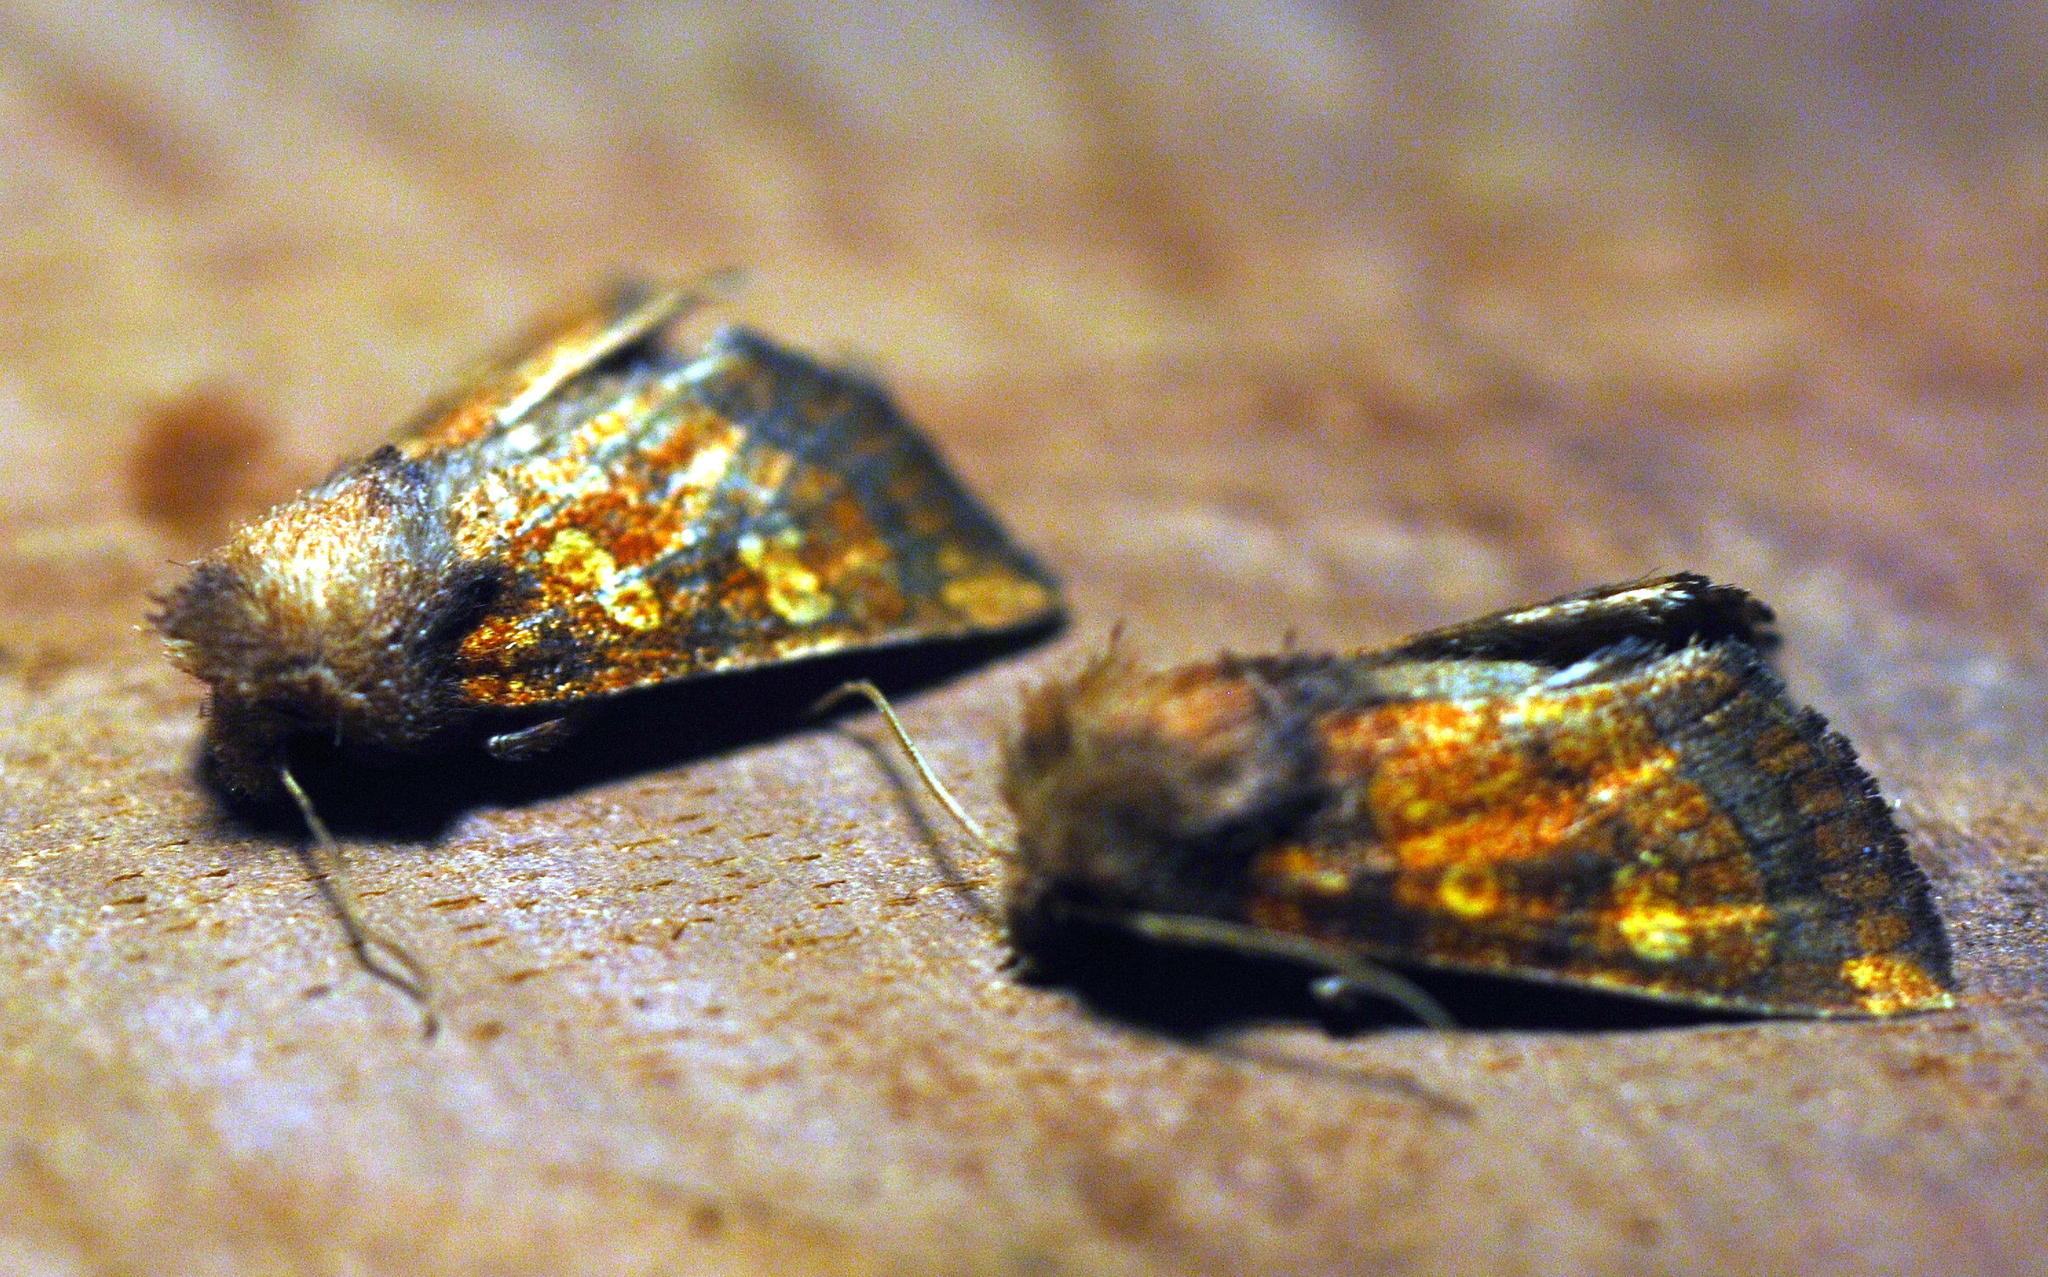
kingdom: Animalia
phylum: Arthropoda
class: Insecta
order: Lepidoptera
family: Noctuidae
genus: Papaipema
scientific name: Papaipema impecuniosa
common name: Aster borer moth
